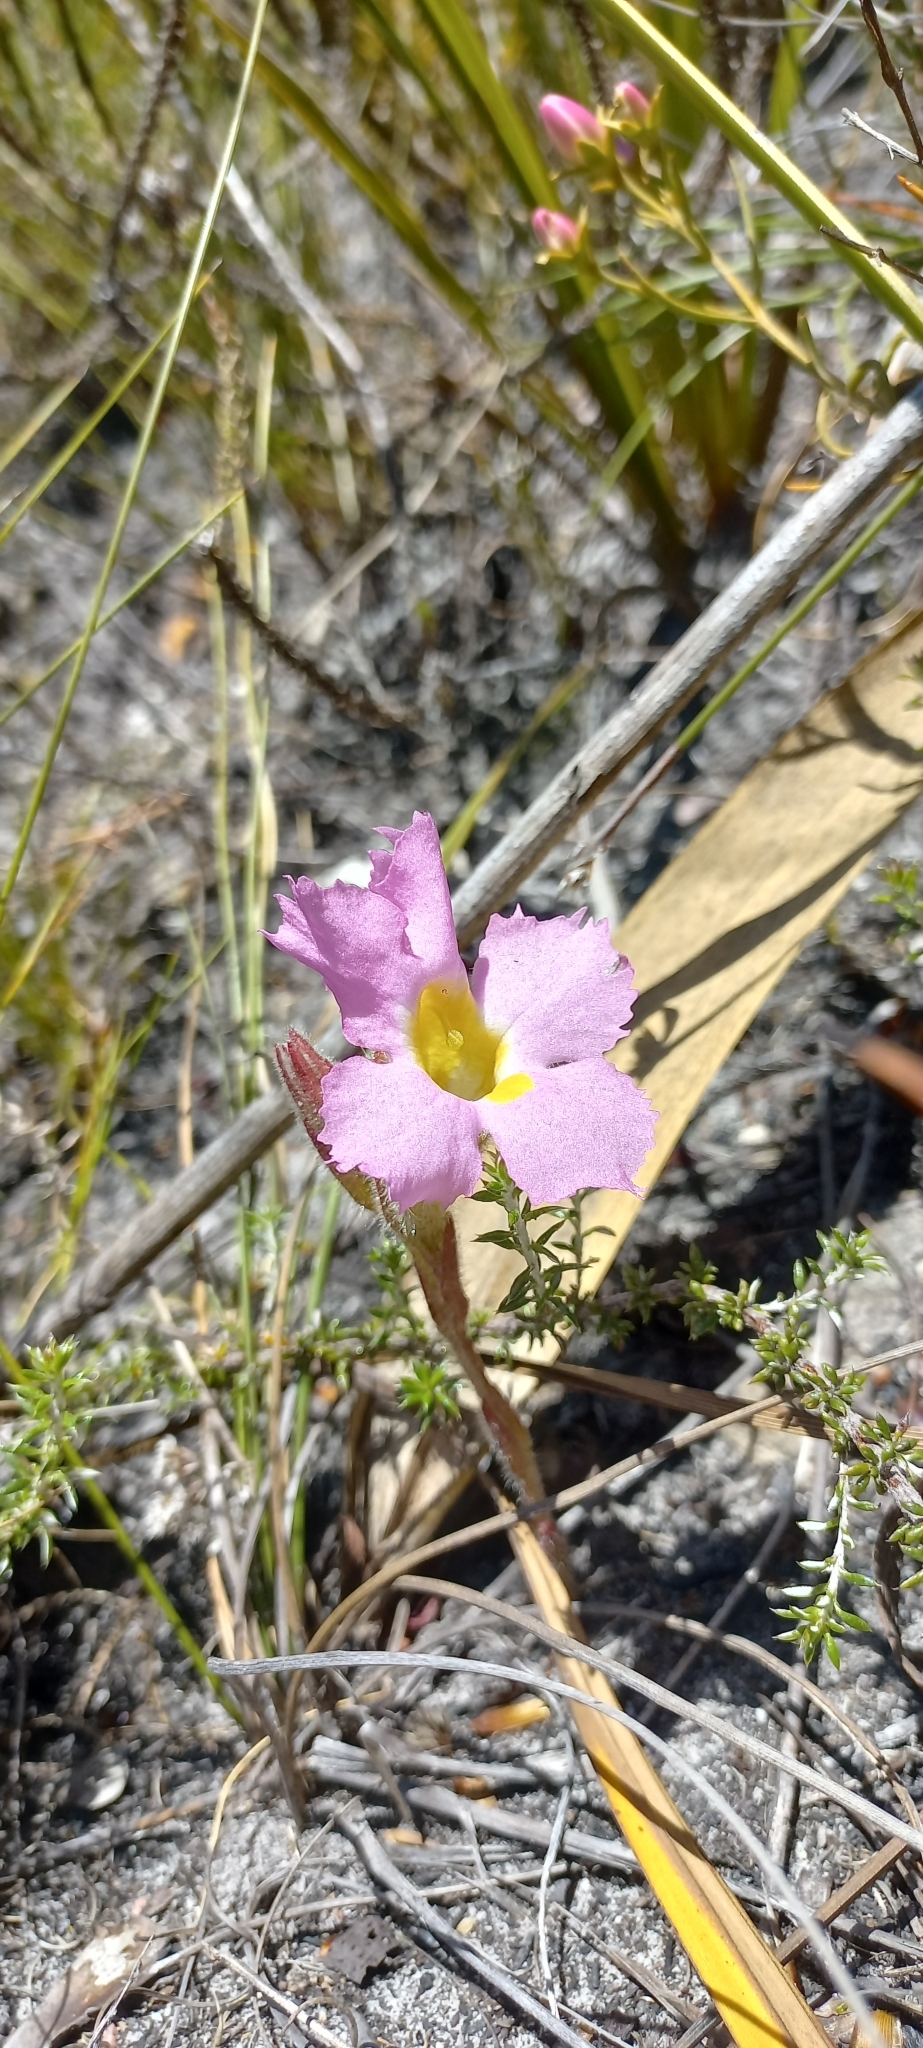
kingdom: Plantae
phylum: Tracheophyta
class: Magnoliopsida
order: Lamiales
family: Orobanchaceae
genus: Harveya
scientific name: Harveya purpurea
